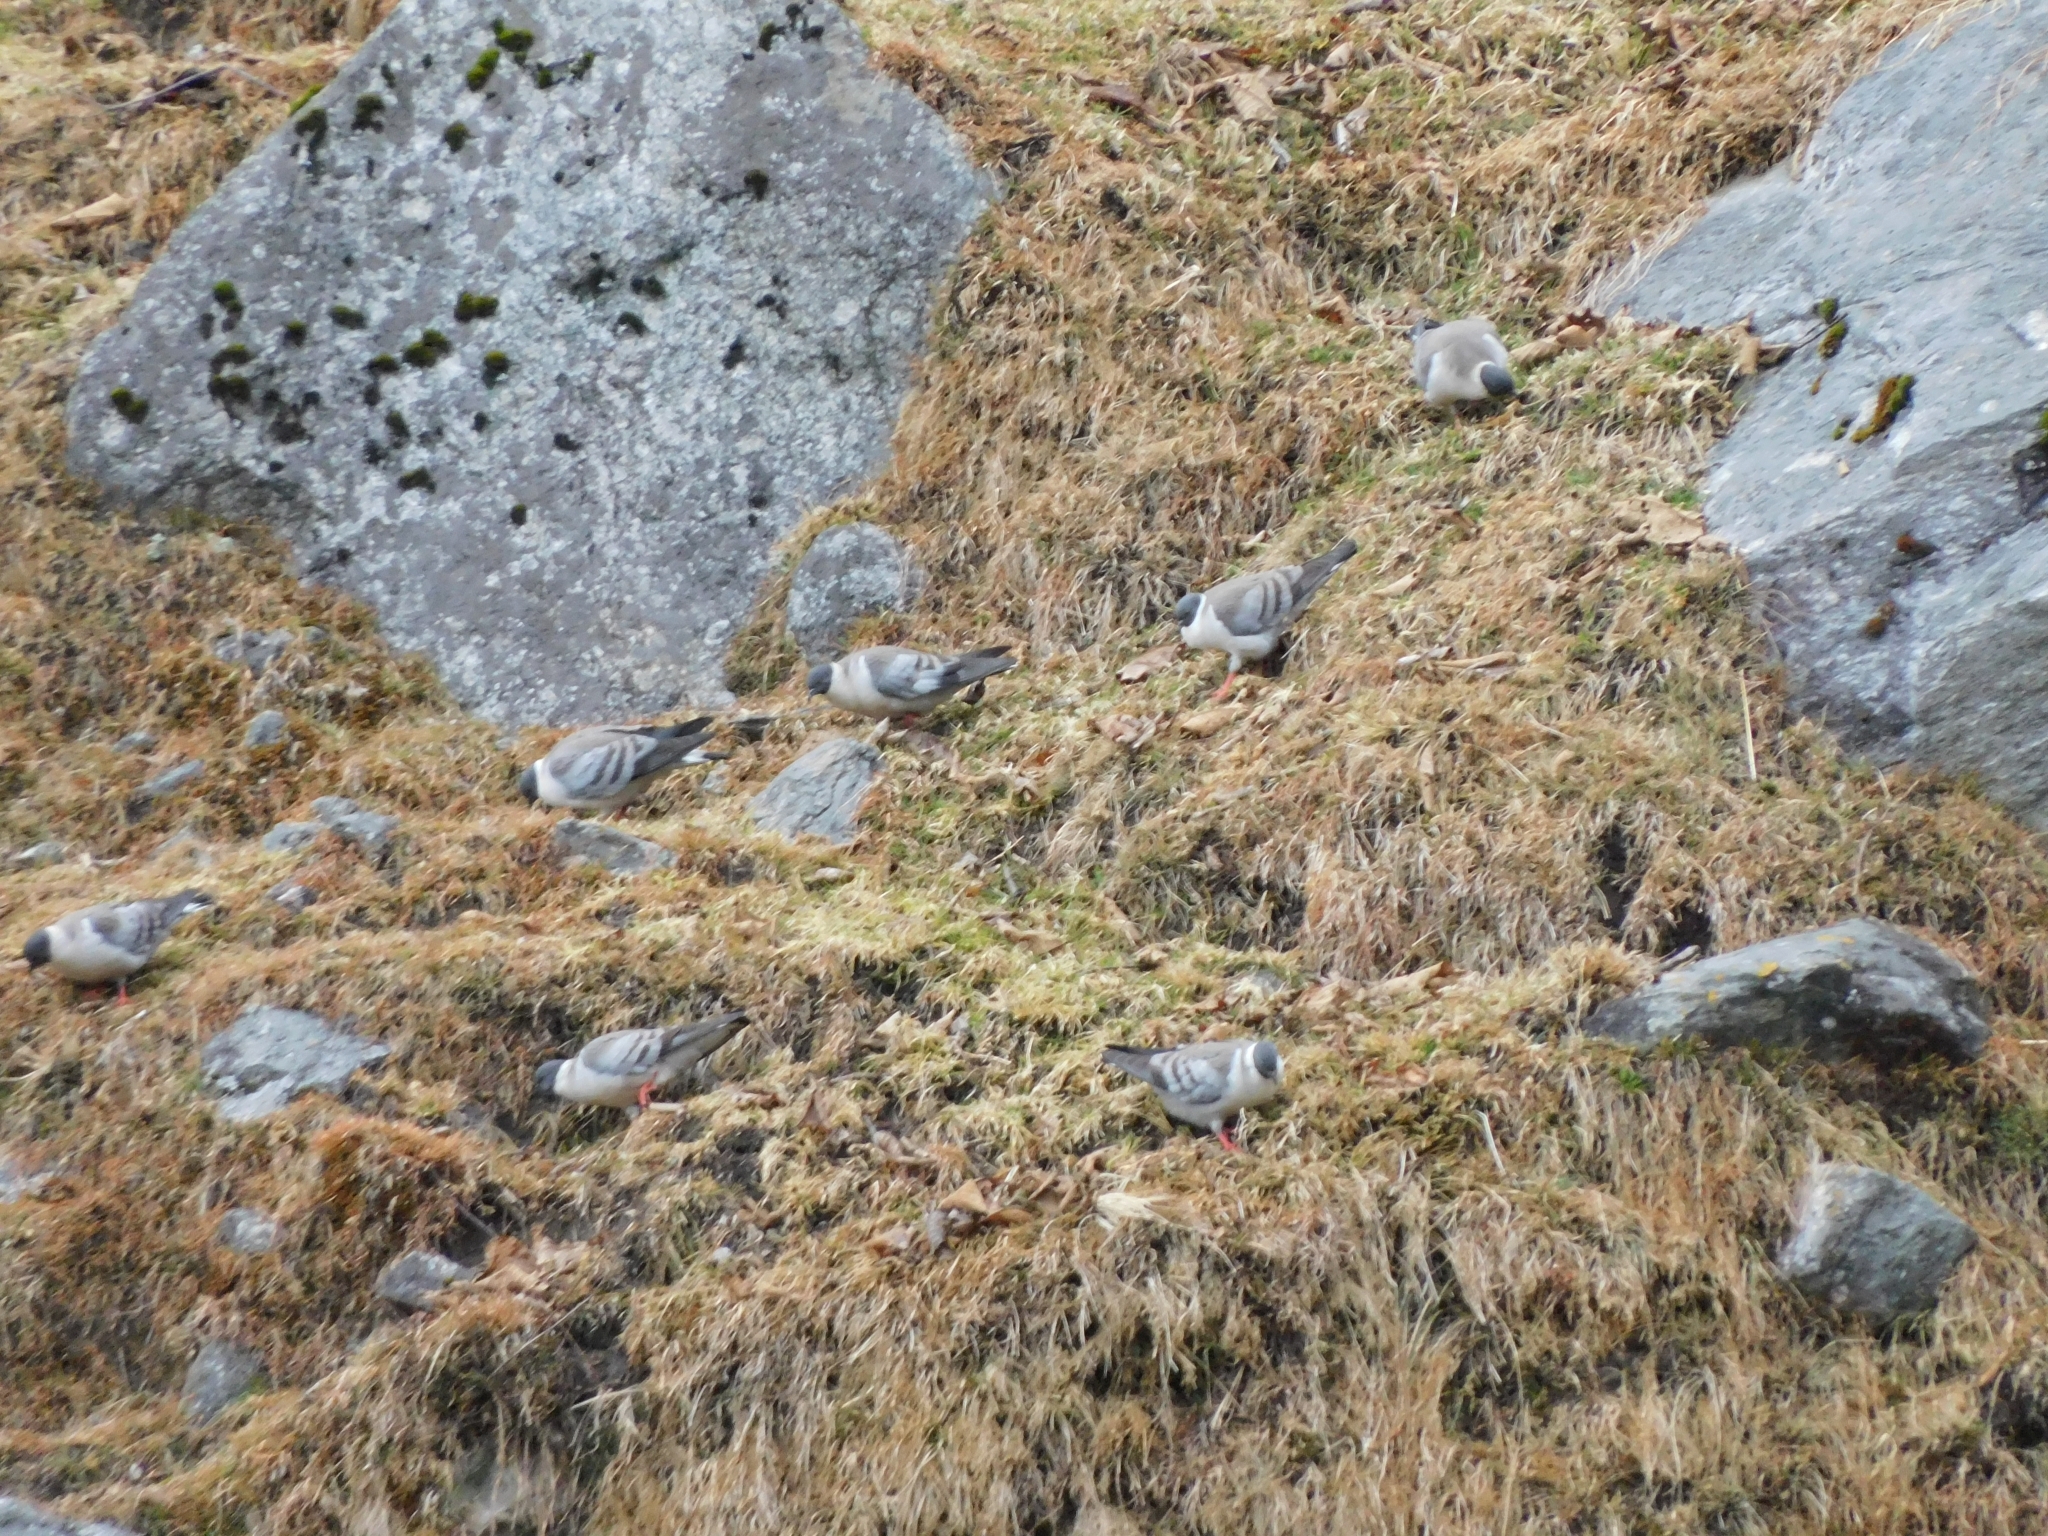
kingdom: Animalia
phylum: Chordata
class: Aves
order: Columbiformes
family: Columbidae
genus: Columba
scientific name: Columba leuconota
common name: Snow pigeon
